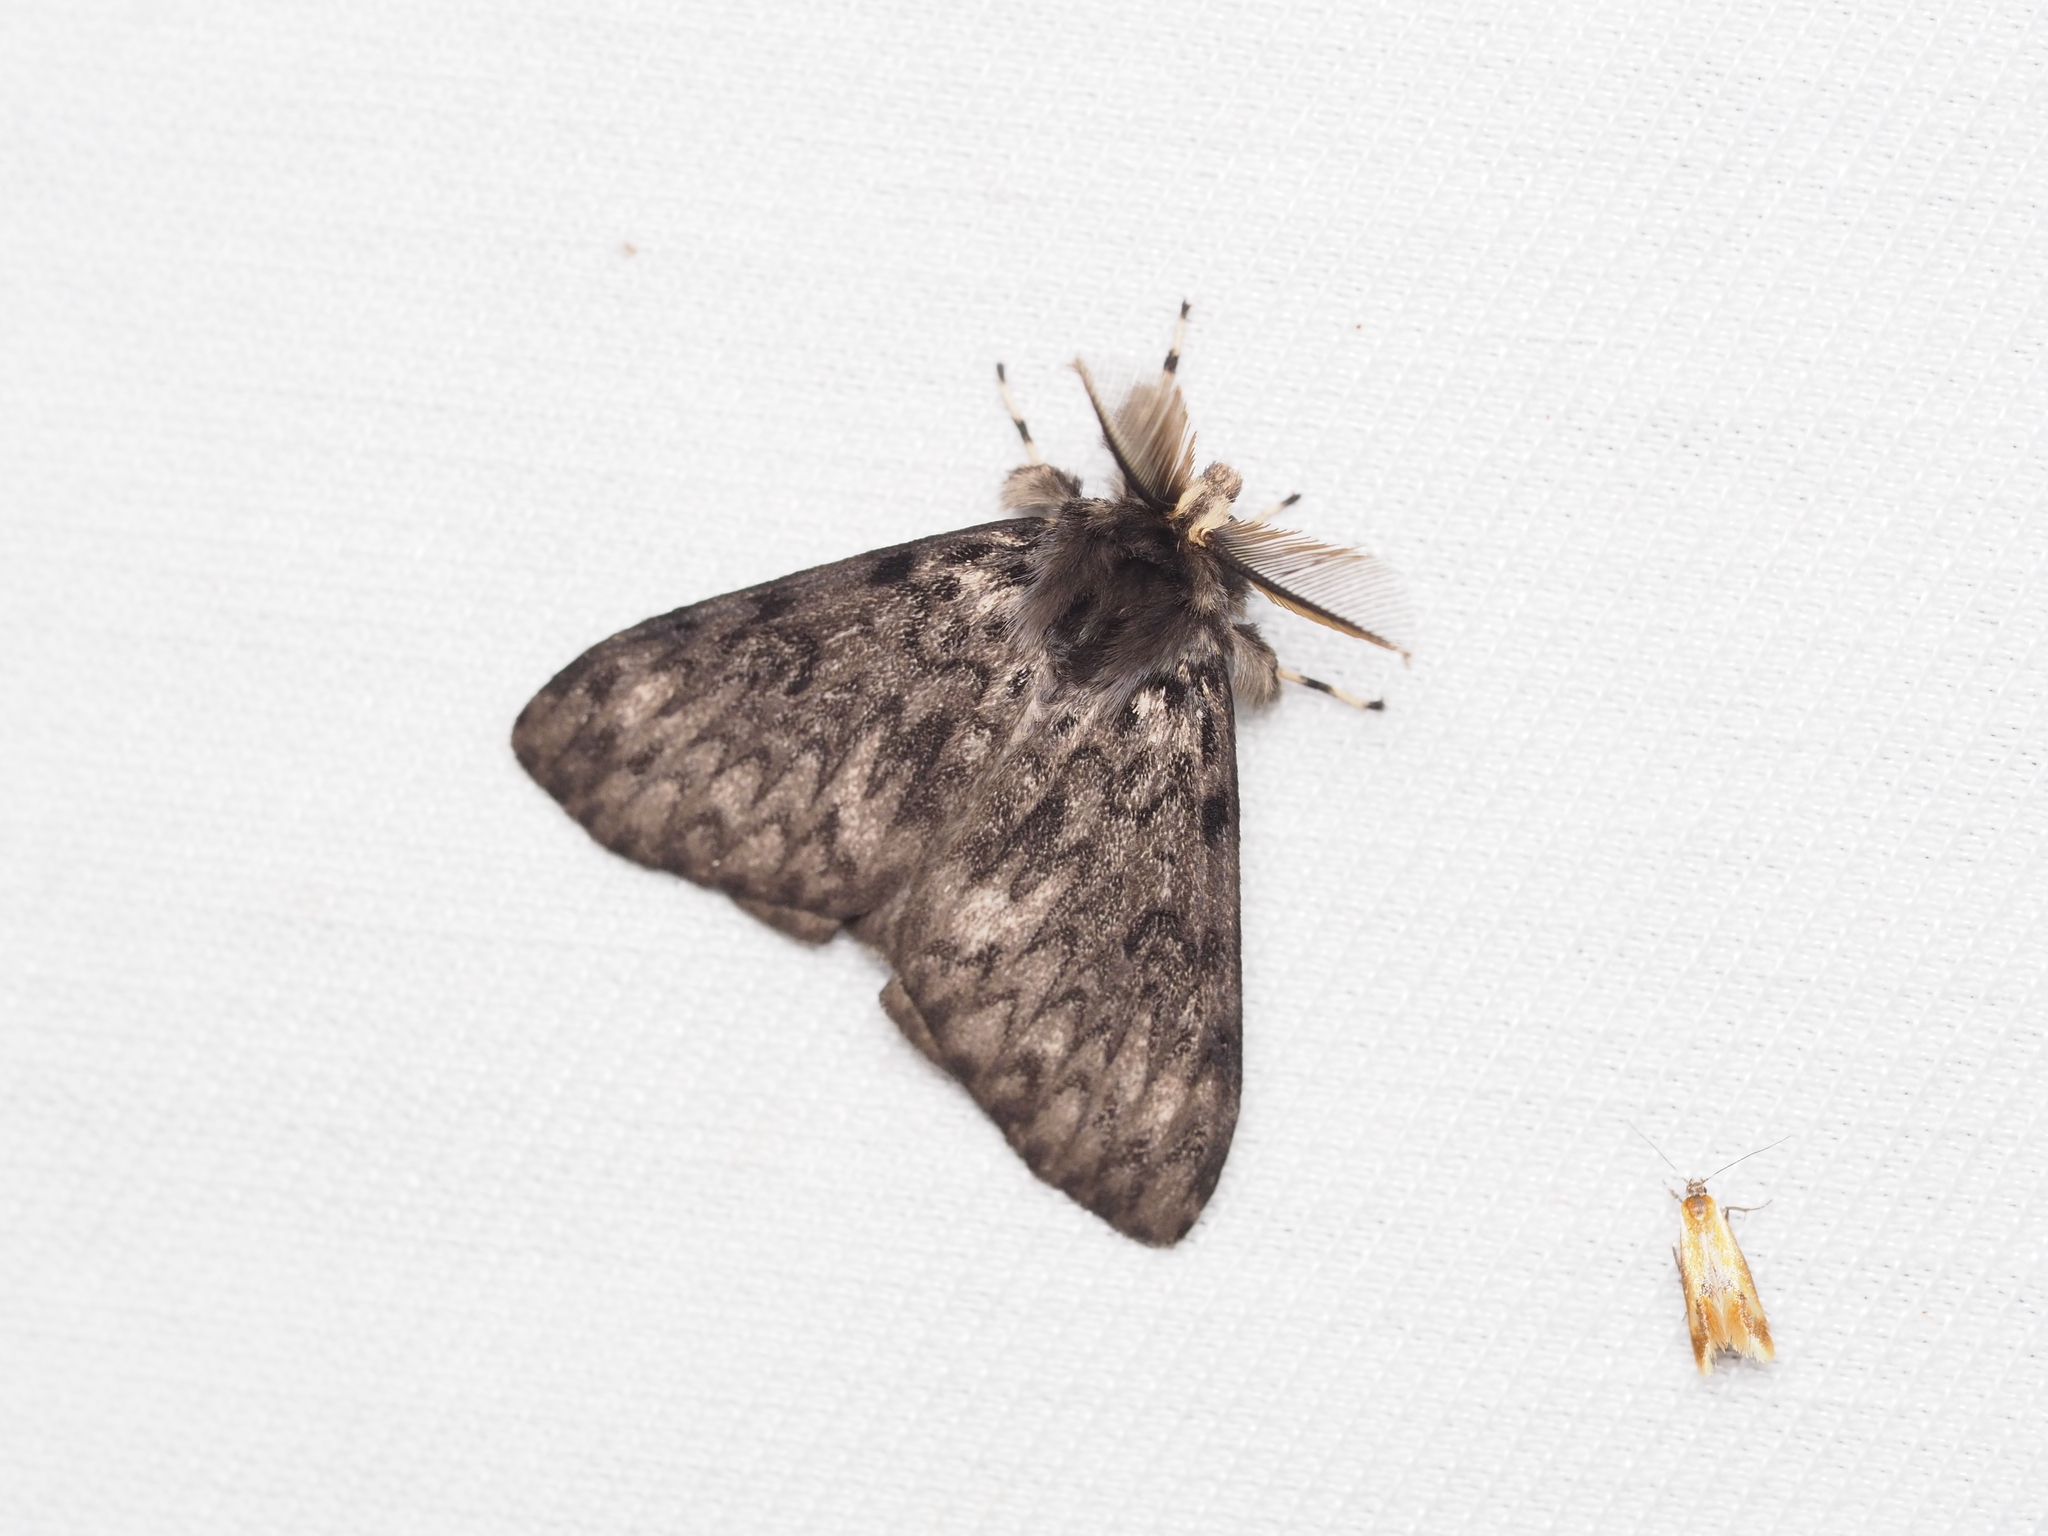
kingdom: Animalia
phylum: Arthropoda
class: Insecta
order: Lepidoptera
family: Erebidae
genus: Lymantria
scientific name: Lymantria monacha
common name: Black arches
